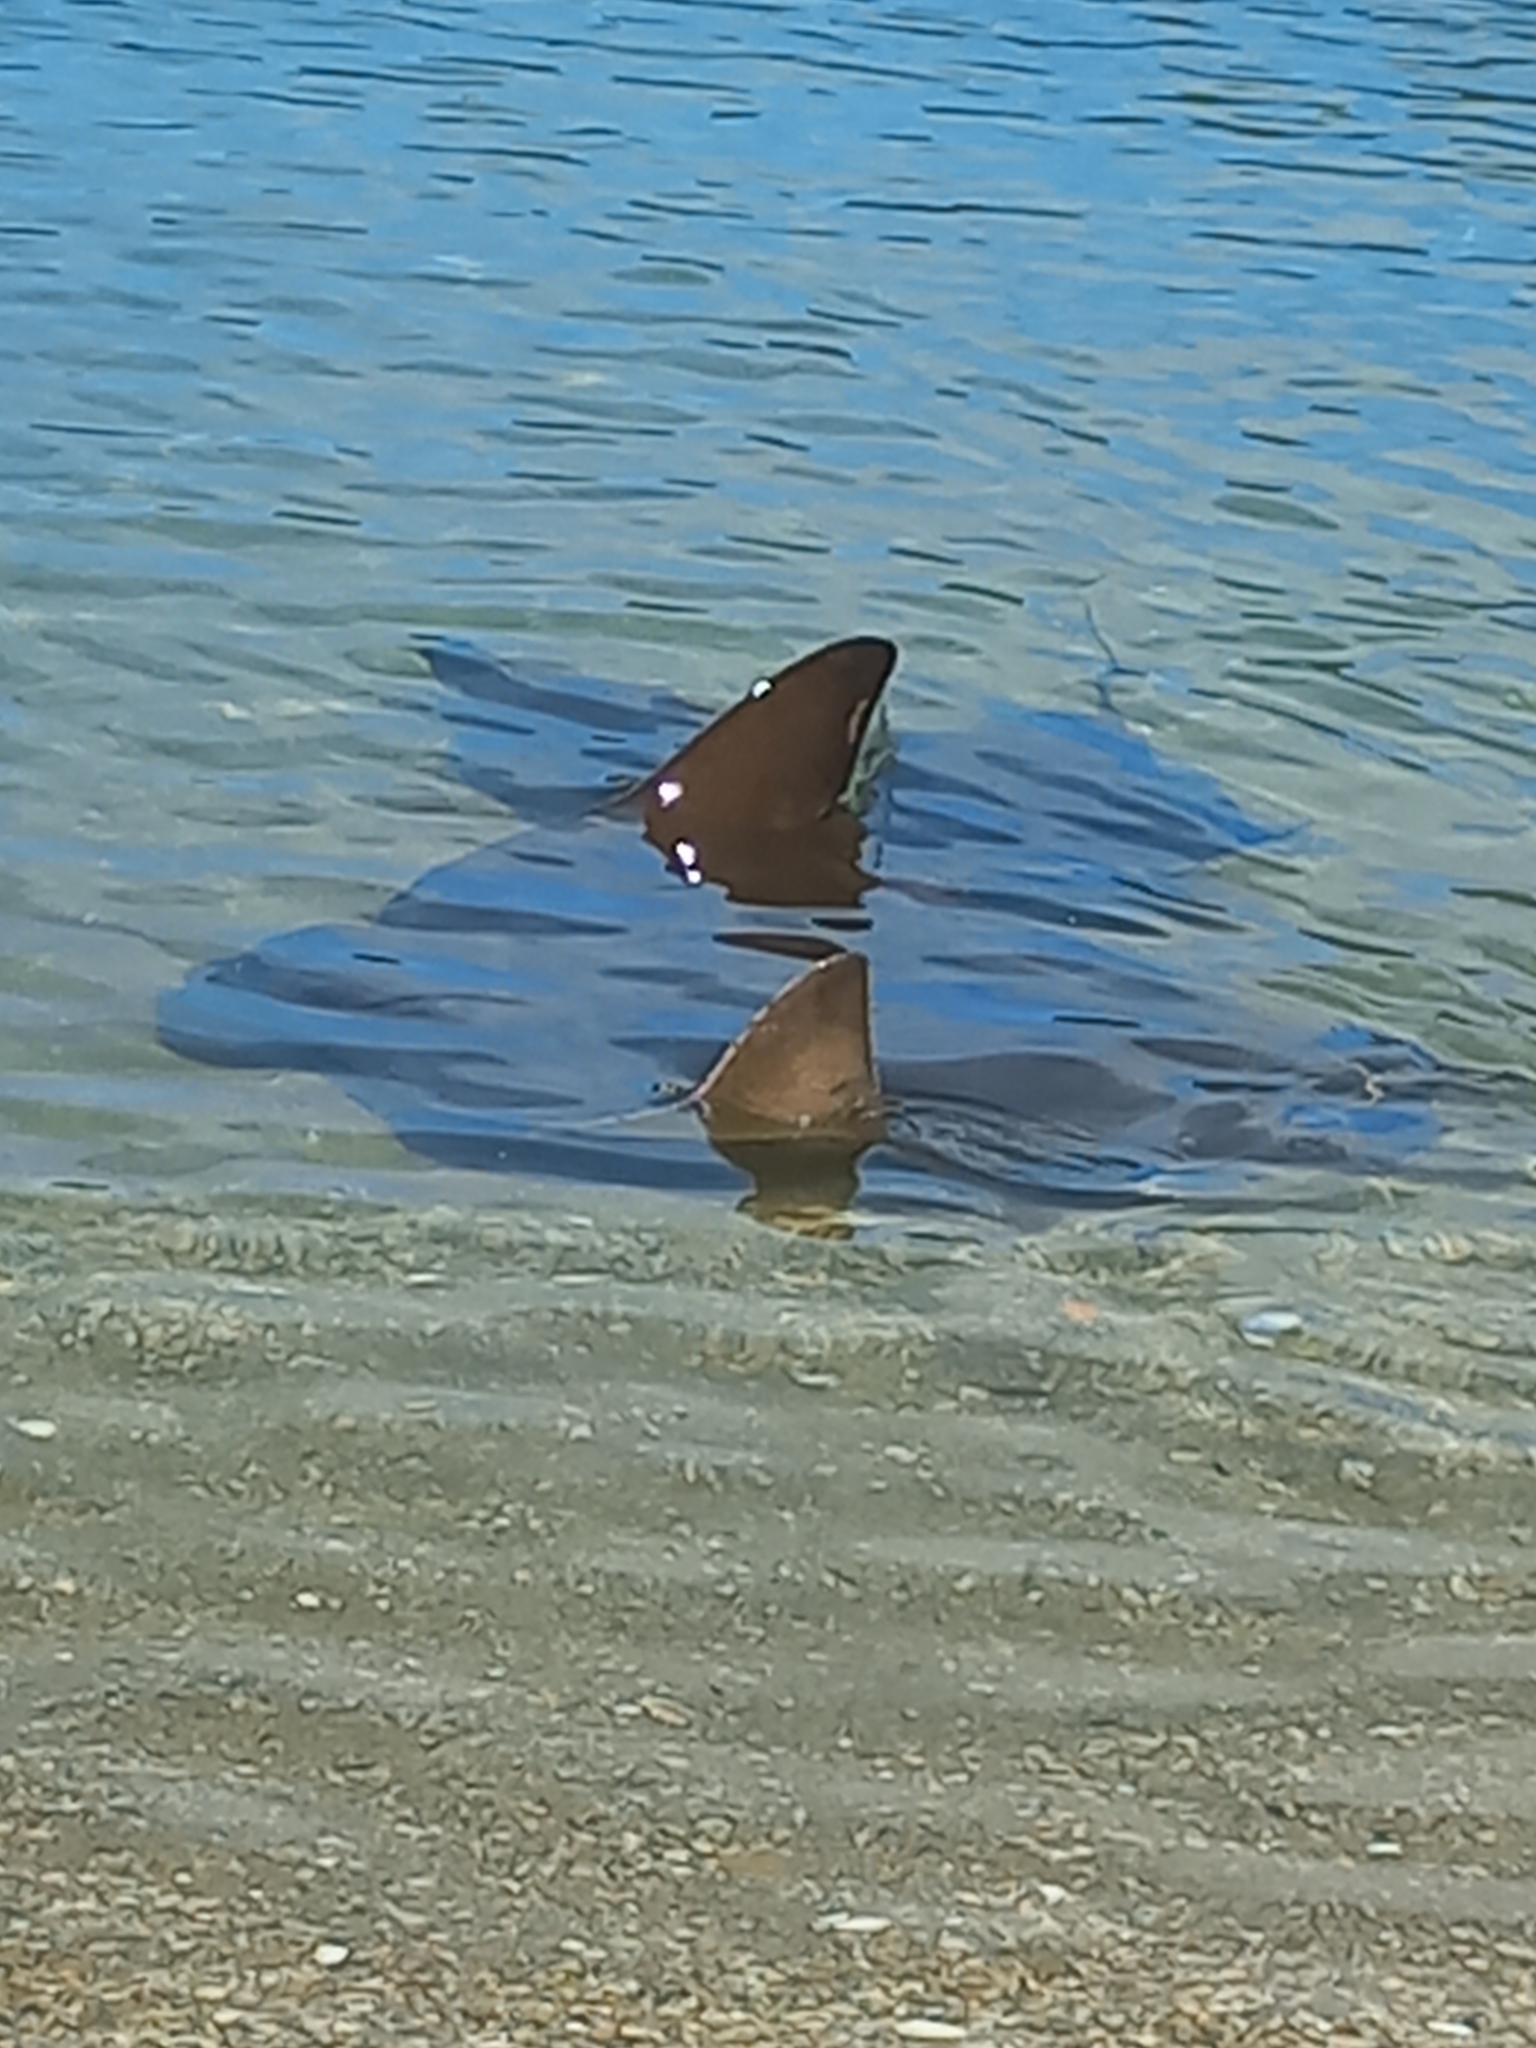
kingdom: Animalia
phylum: Chordata
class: Elasmobranchii
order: Myliobatiformes
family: Myliobatidae
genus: Myliobatis
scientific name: Myliobatis tenuicaudatus
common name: Eagle ray
